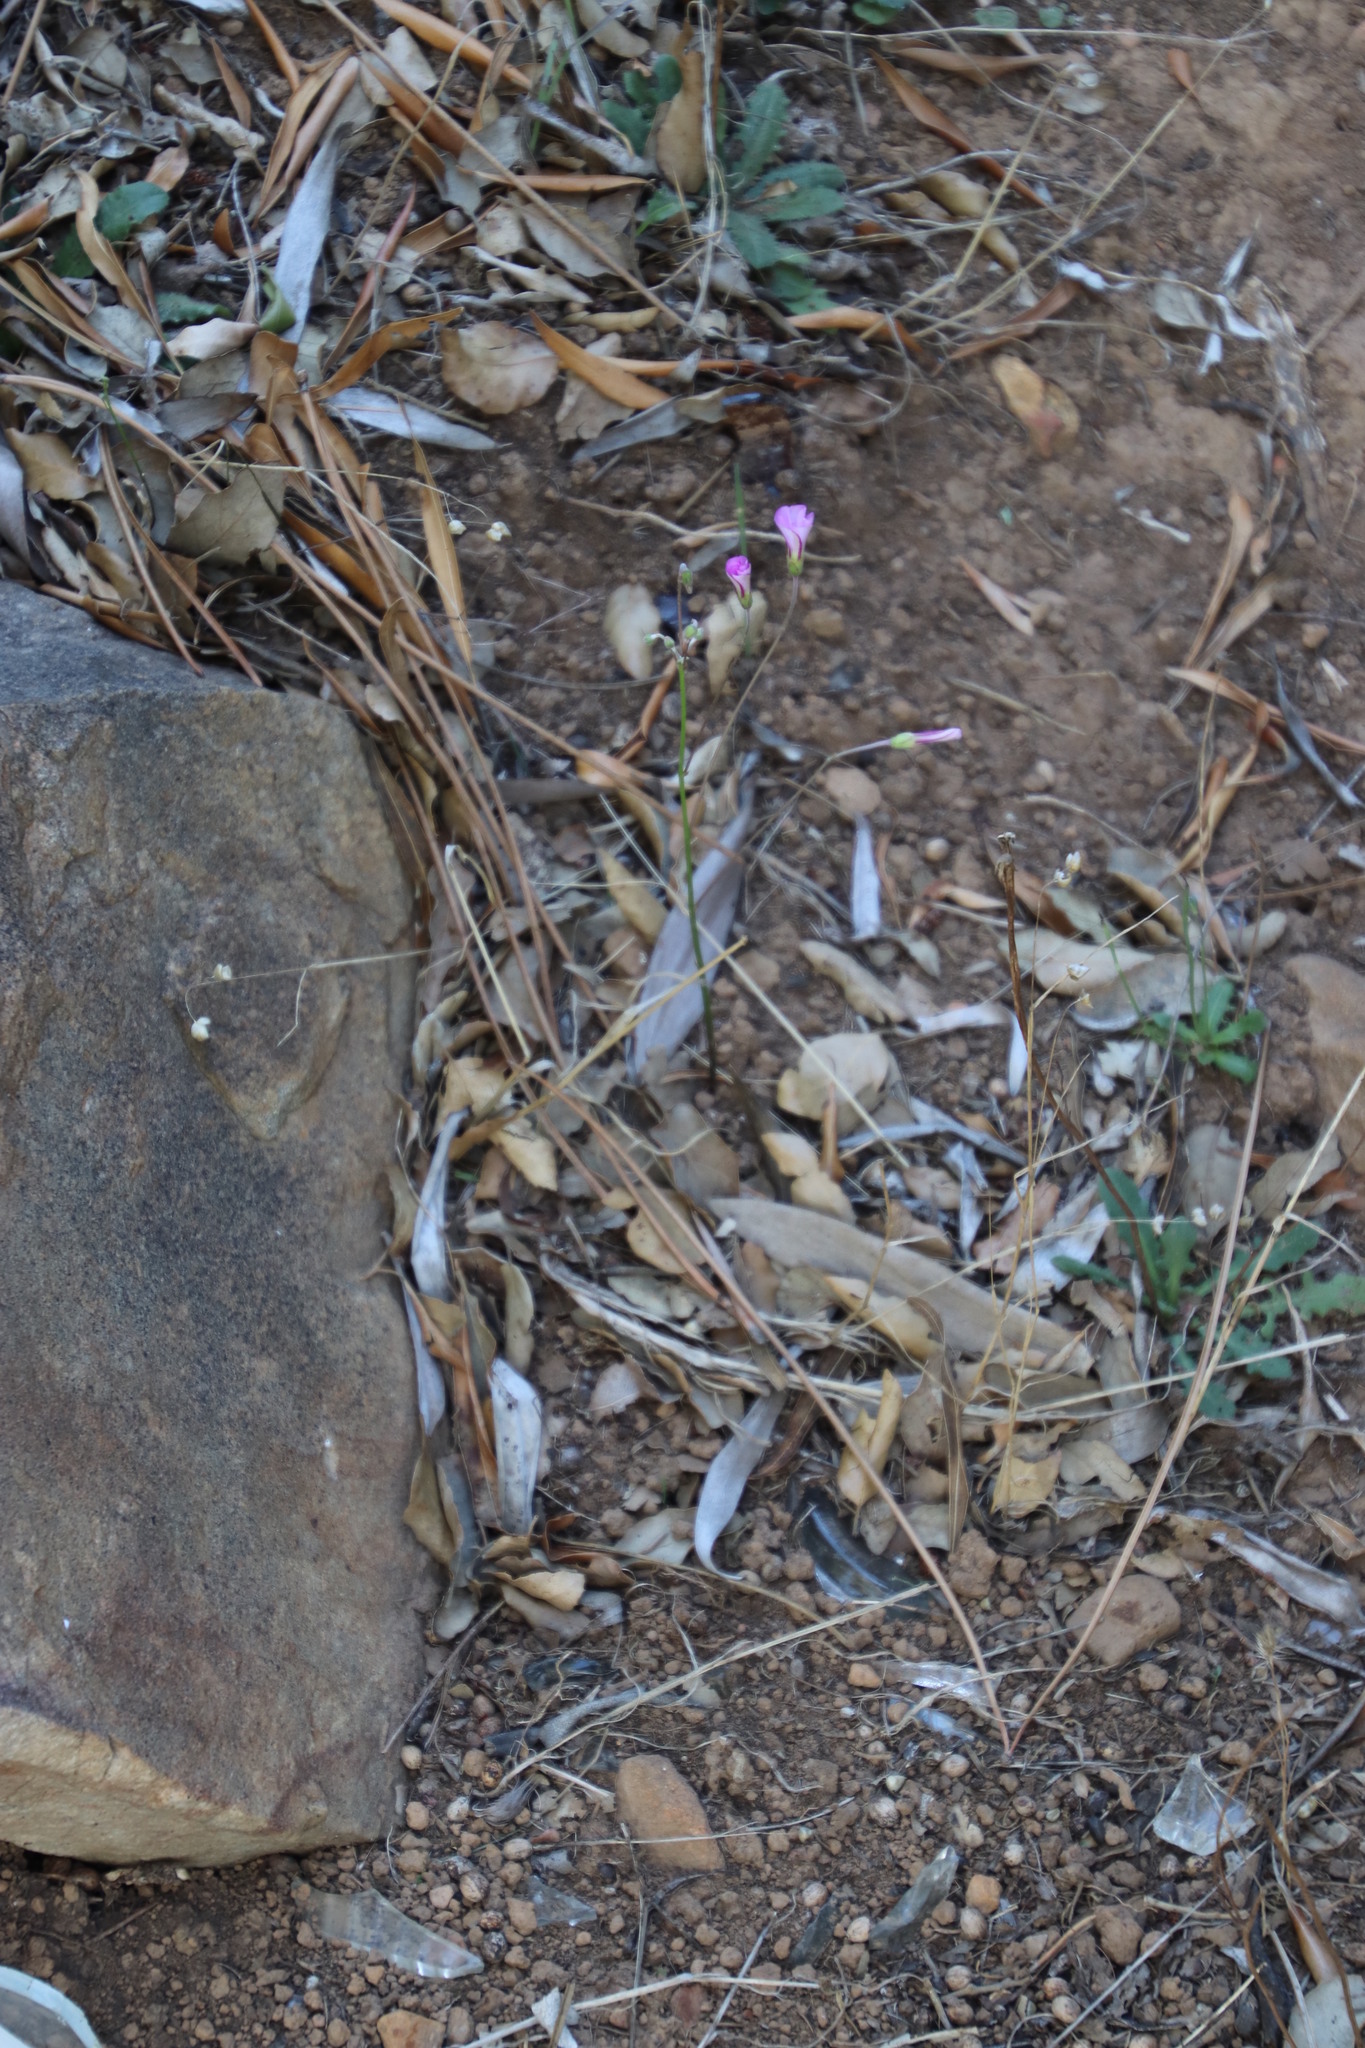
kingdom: Plantae
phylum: Tracheophyta
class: Magnoliopsida
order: Oxalidales
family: Oxalidaceae
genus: Oxalis
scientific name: Oxalis bifida
